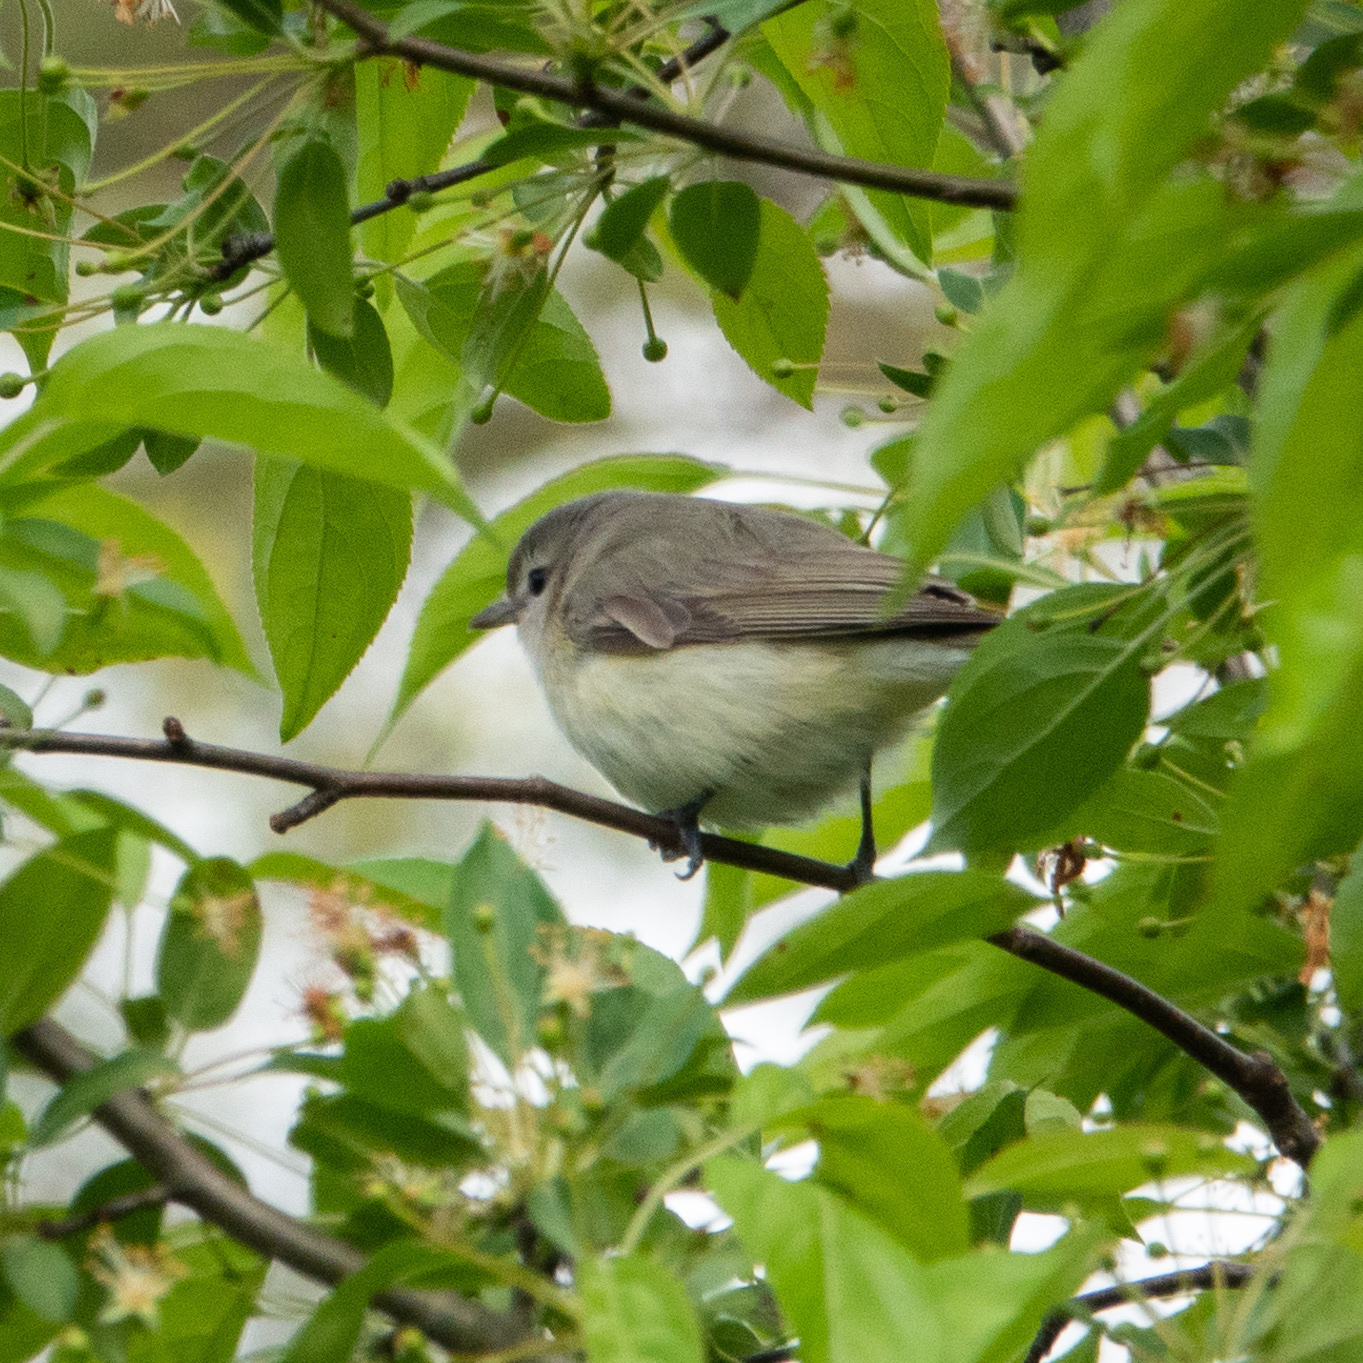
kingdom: Animalia
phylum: Chordata
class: Aves
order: Passeriformes
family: Vireonidae
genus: Vireo
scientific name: Vireo gilvus
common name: Warbling vireo
